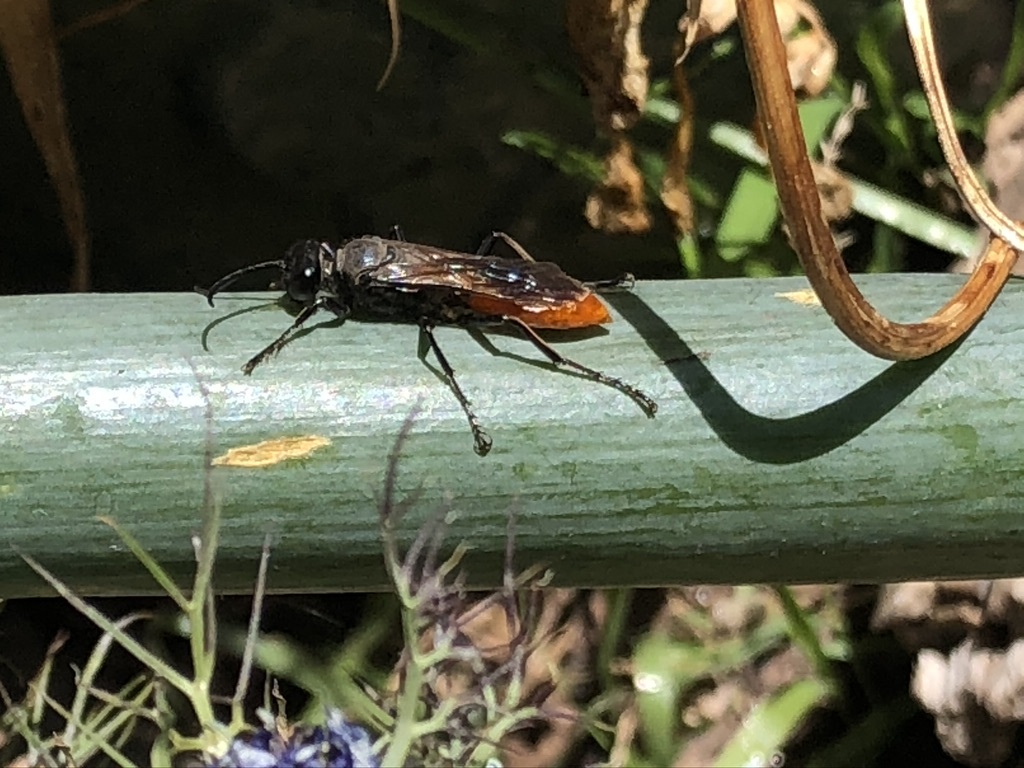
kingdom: Animalia
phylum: Arthropoda
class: Insecta
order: Hymenoptera
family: Sphecidae
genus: Sphex
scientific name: Sphex lucae
